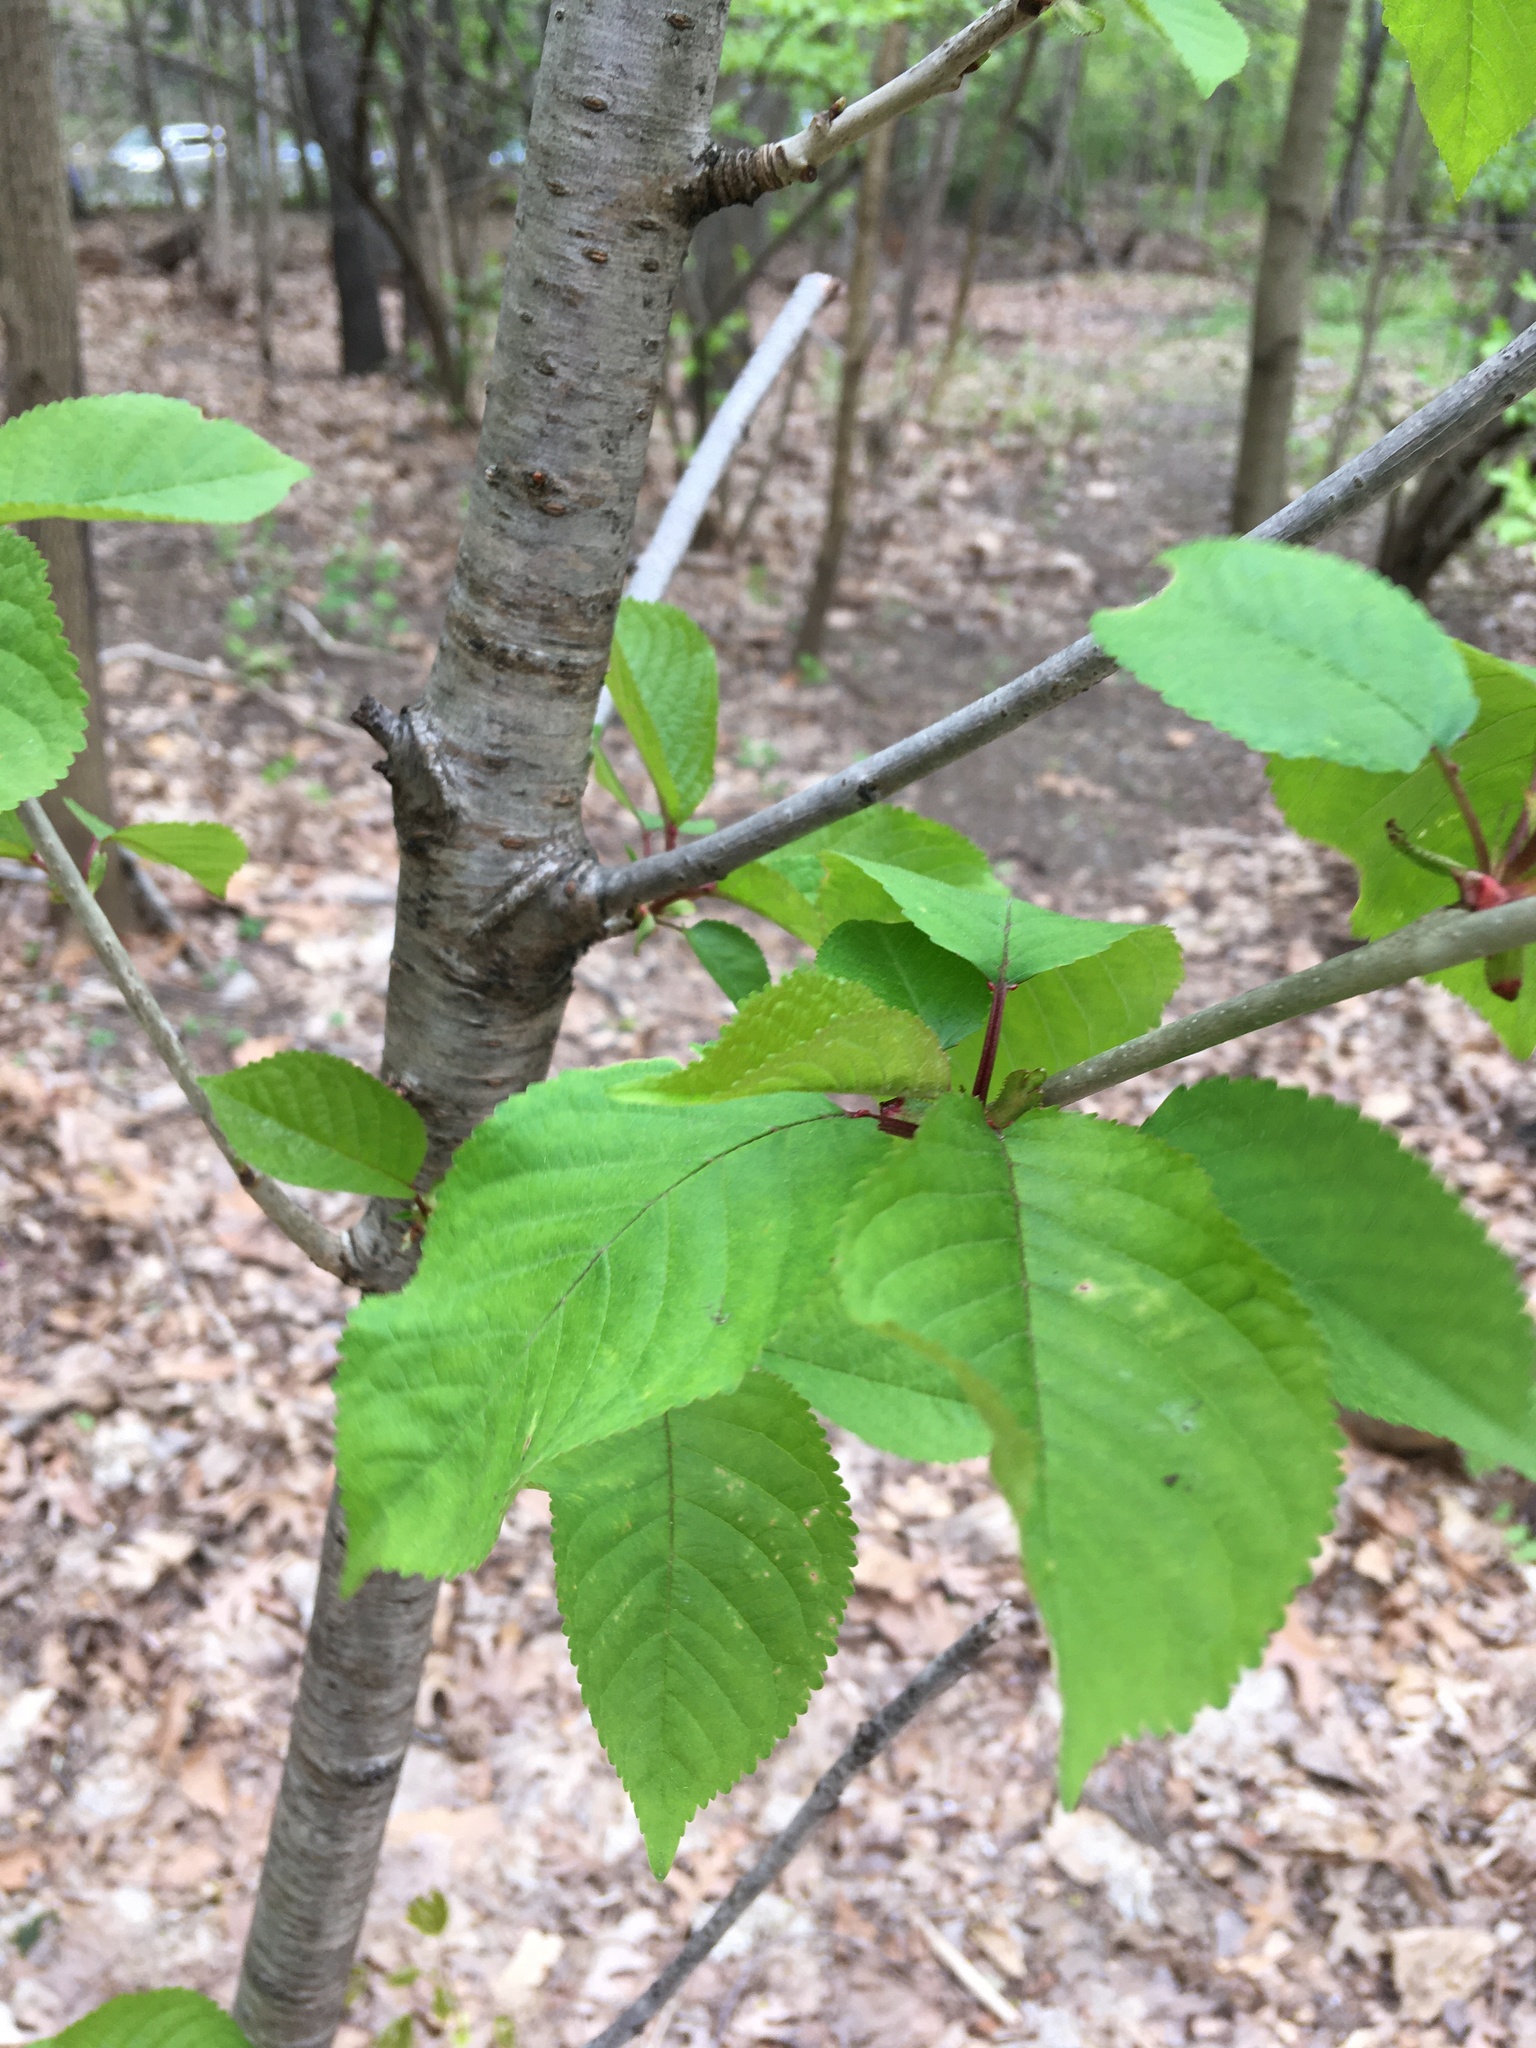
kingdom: Plantae
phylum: Tracheophyta
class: Magnoliopsida
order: Rosales
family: Rosaceae
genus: Prunus
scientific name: Prunus avium
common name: Sweet cherry
